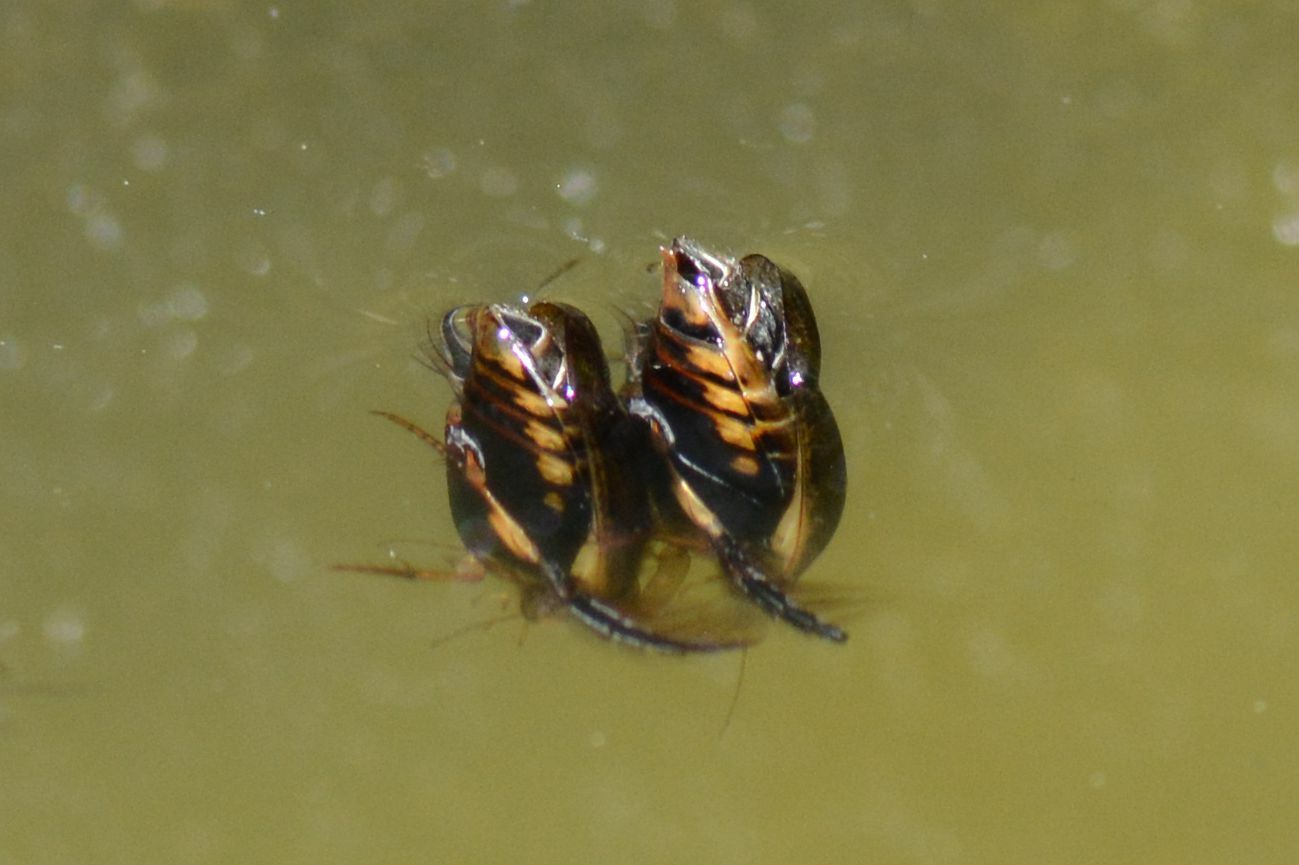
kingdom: Animalia
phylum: Arthropoda
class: Insecta
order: Coleoptera
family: Dytiscidae
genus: Acilius
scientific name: Acilius sulcatus
